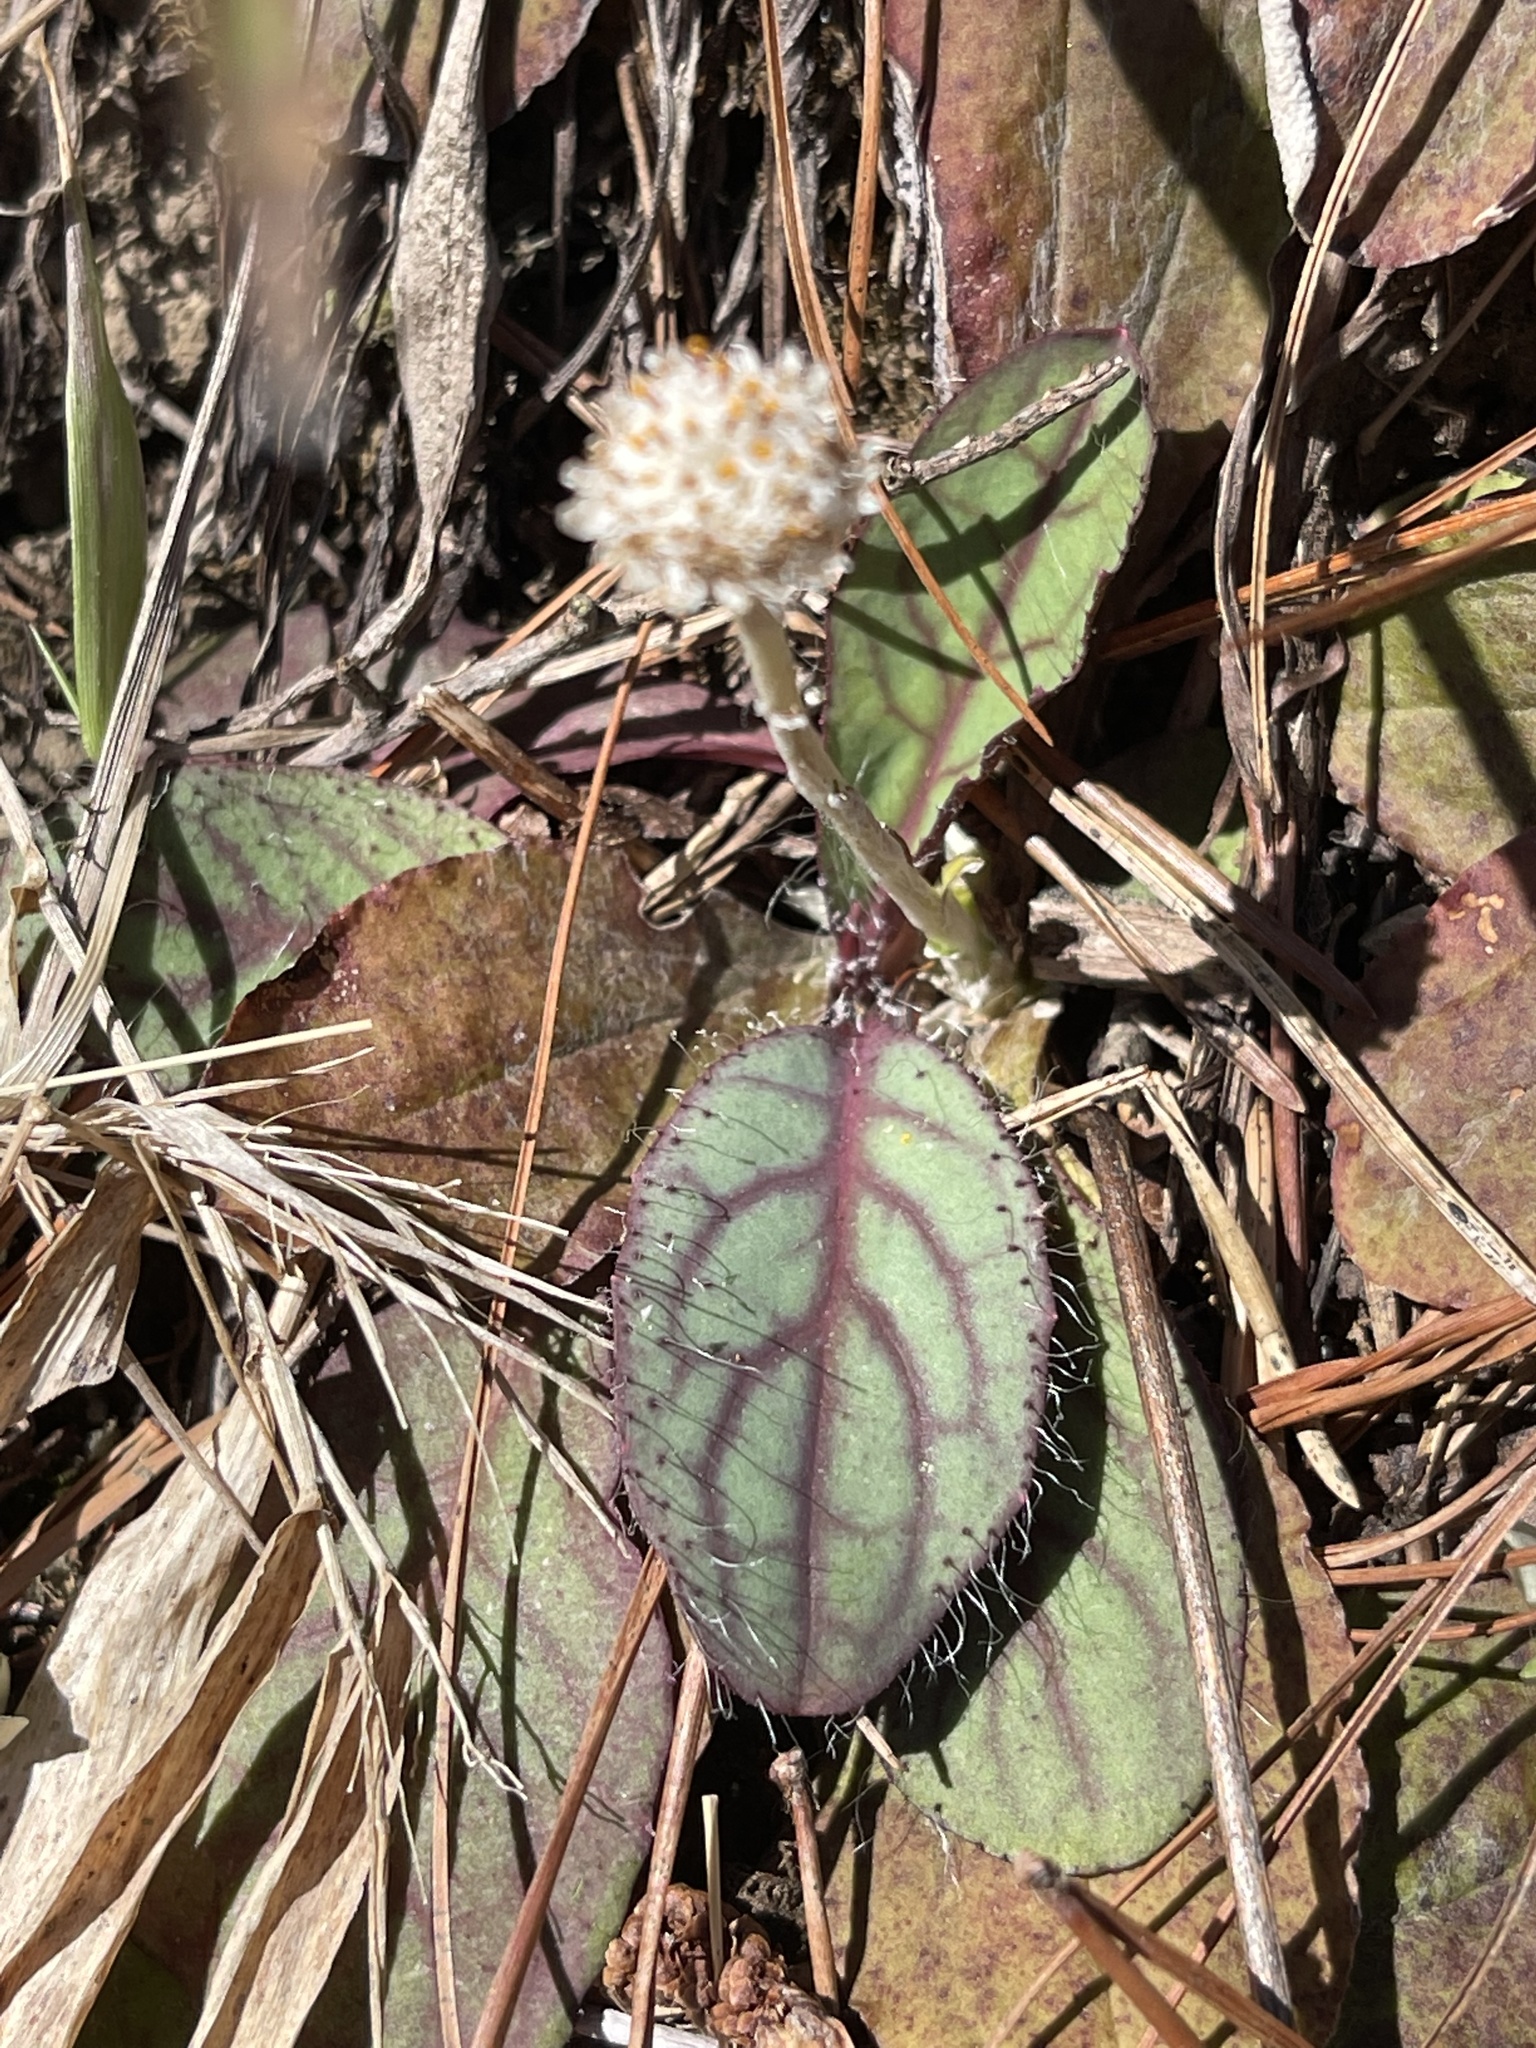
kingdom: Plantae
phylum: Tracheophyta
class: Magnoliopsida
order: Asterales
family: Asteraceae
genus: Antennaria
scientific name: Antennaria solitaria
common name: Single-head pussytoes
